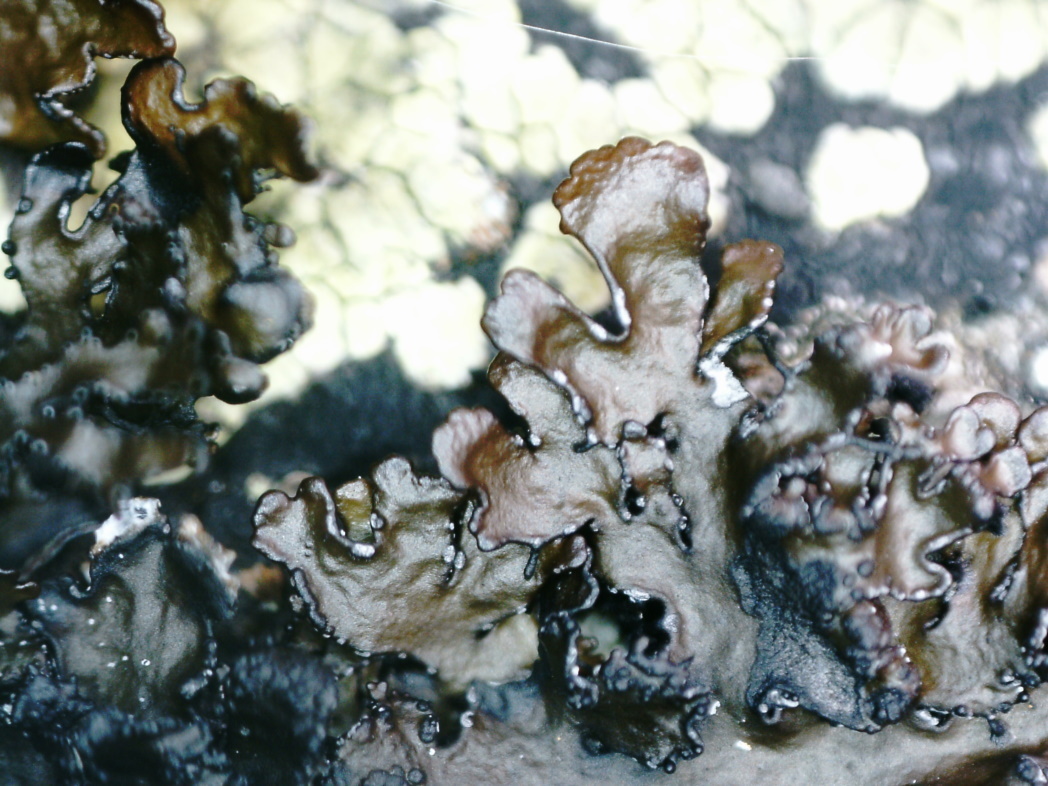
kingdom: Fungi
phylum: Ascomycota
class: Lecanoromycetes
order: Lecanorales
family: Parmeliaceae
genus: Melanelia
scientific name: Melanelia hepatizon
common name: Rimmed camouflage lichen
